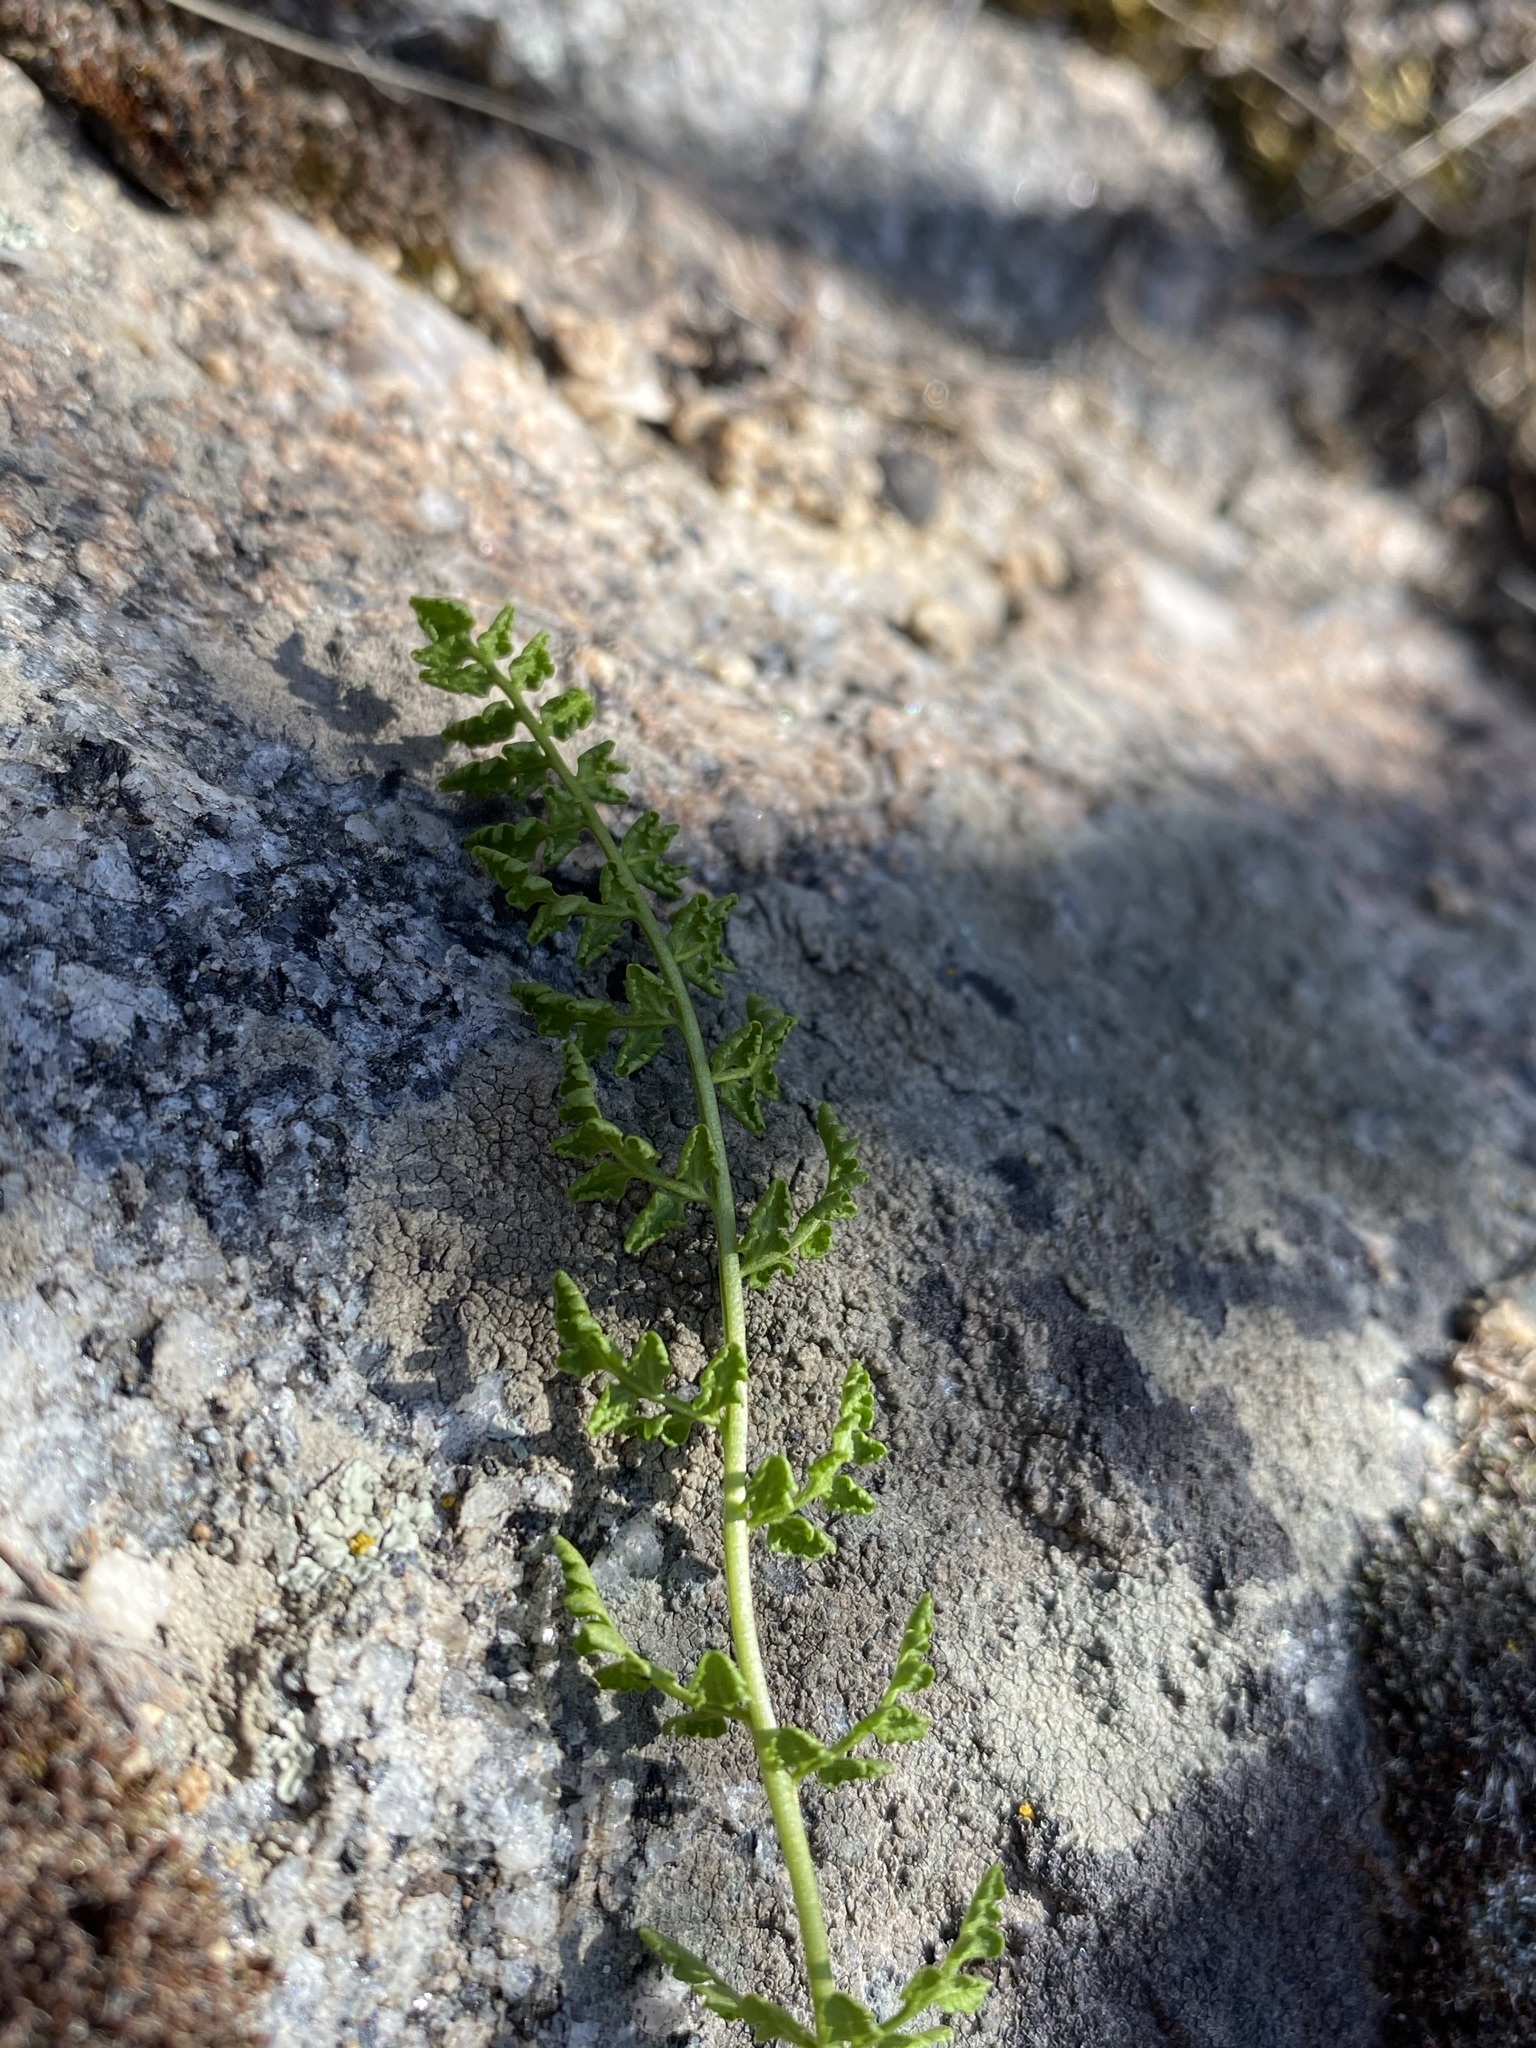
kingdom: Plantae
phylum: Tracheophyta
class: Polypodiopsida
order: Polypodiales
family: Woodsiaceae
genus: Physematium
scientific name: Physematium oreganum
